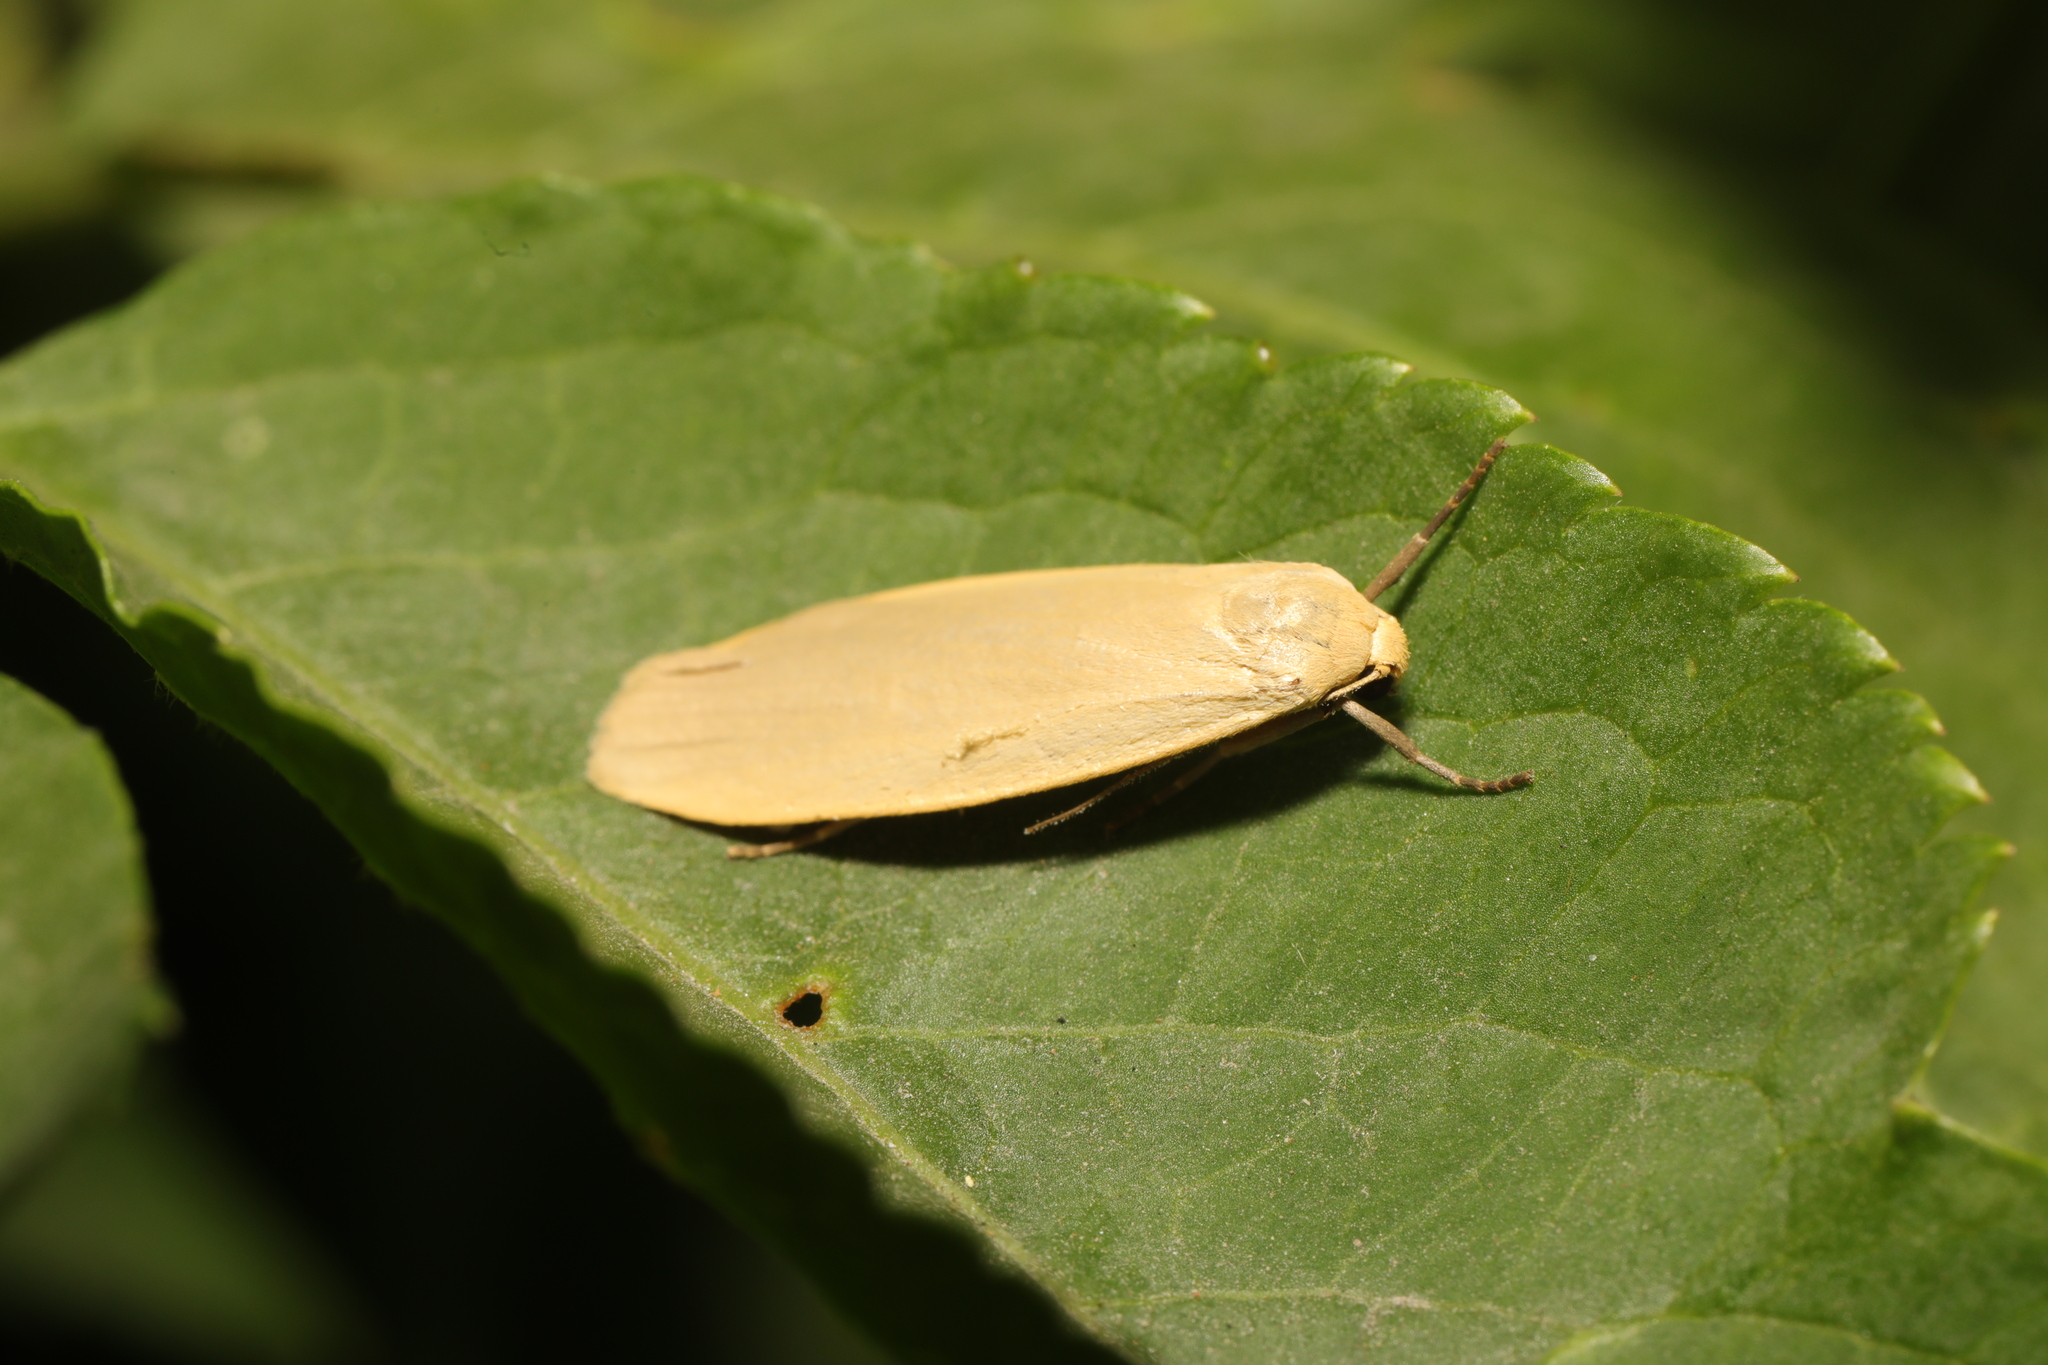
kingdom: Animalia
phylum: Arthropoda
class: Insecta
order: Lepidoptera
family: Erebidae
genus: Wittia
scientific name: Wittia sororcula
